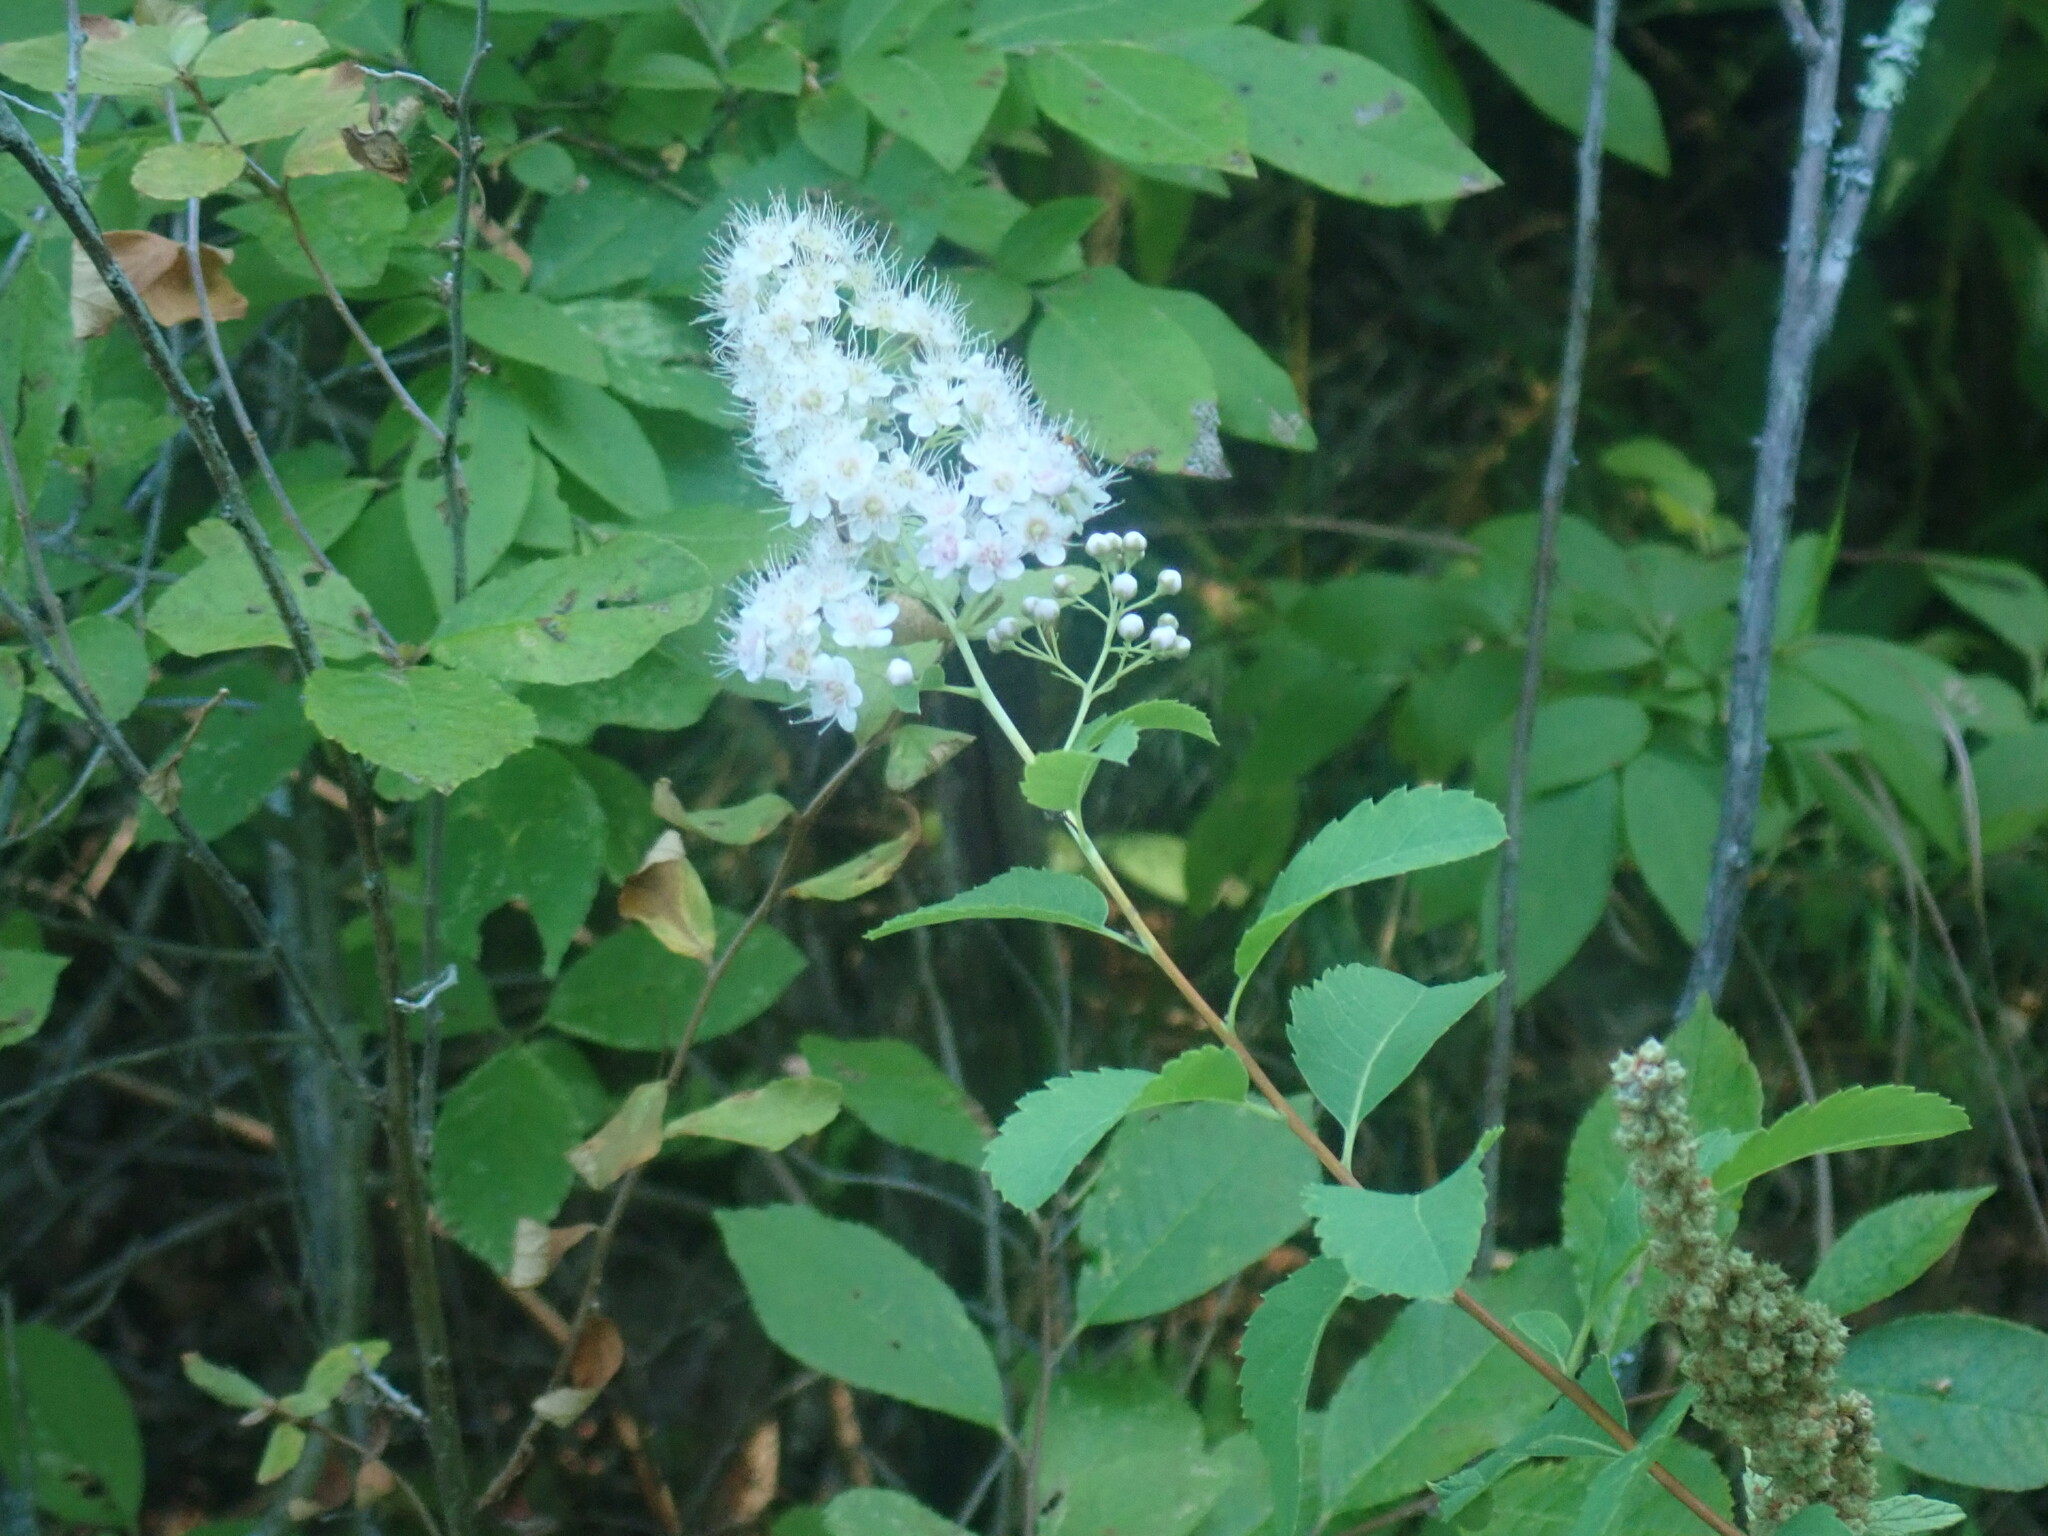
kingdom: Plantae
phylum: Tracheophyta
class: Magnoliopsida
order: Rosales
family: Rosaceae
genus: Spiraea
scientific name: Spiraea alba
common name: Pale bridewort
